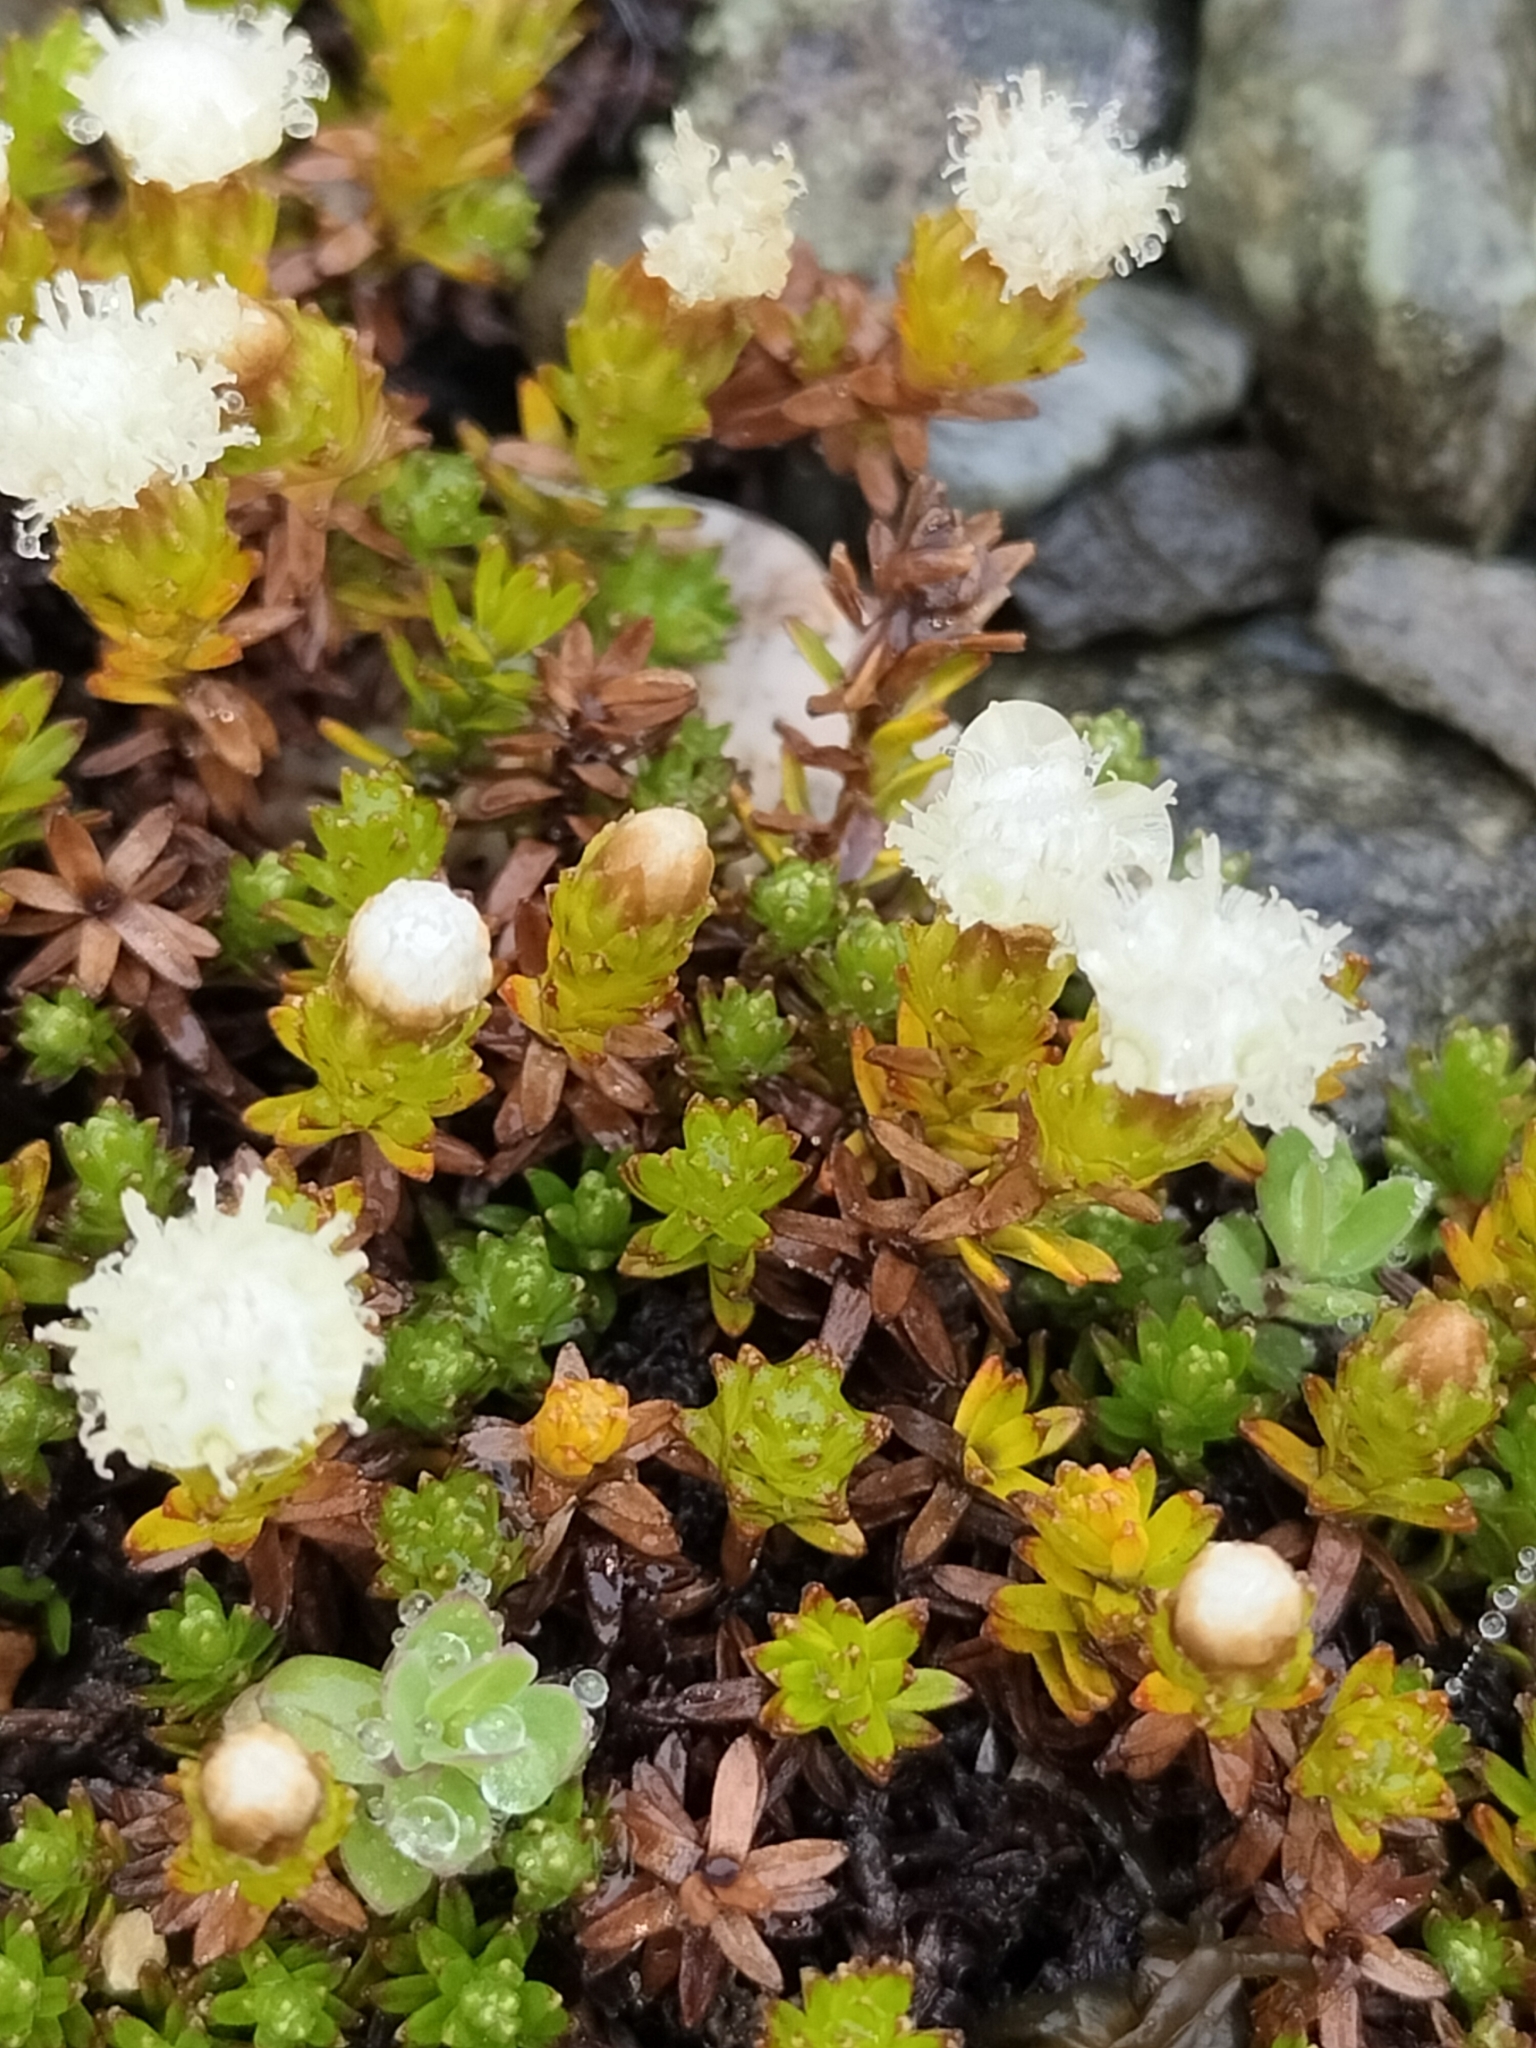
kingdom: Plantae
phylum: Tracheophyta
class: Magnoliopsida
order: Asterales
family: Asteraceae
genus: Raoulia
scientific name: Raoulia glabra
